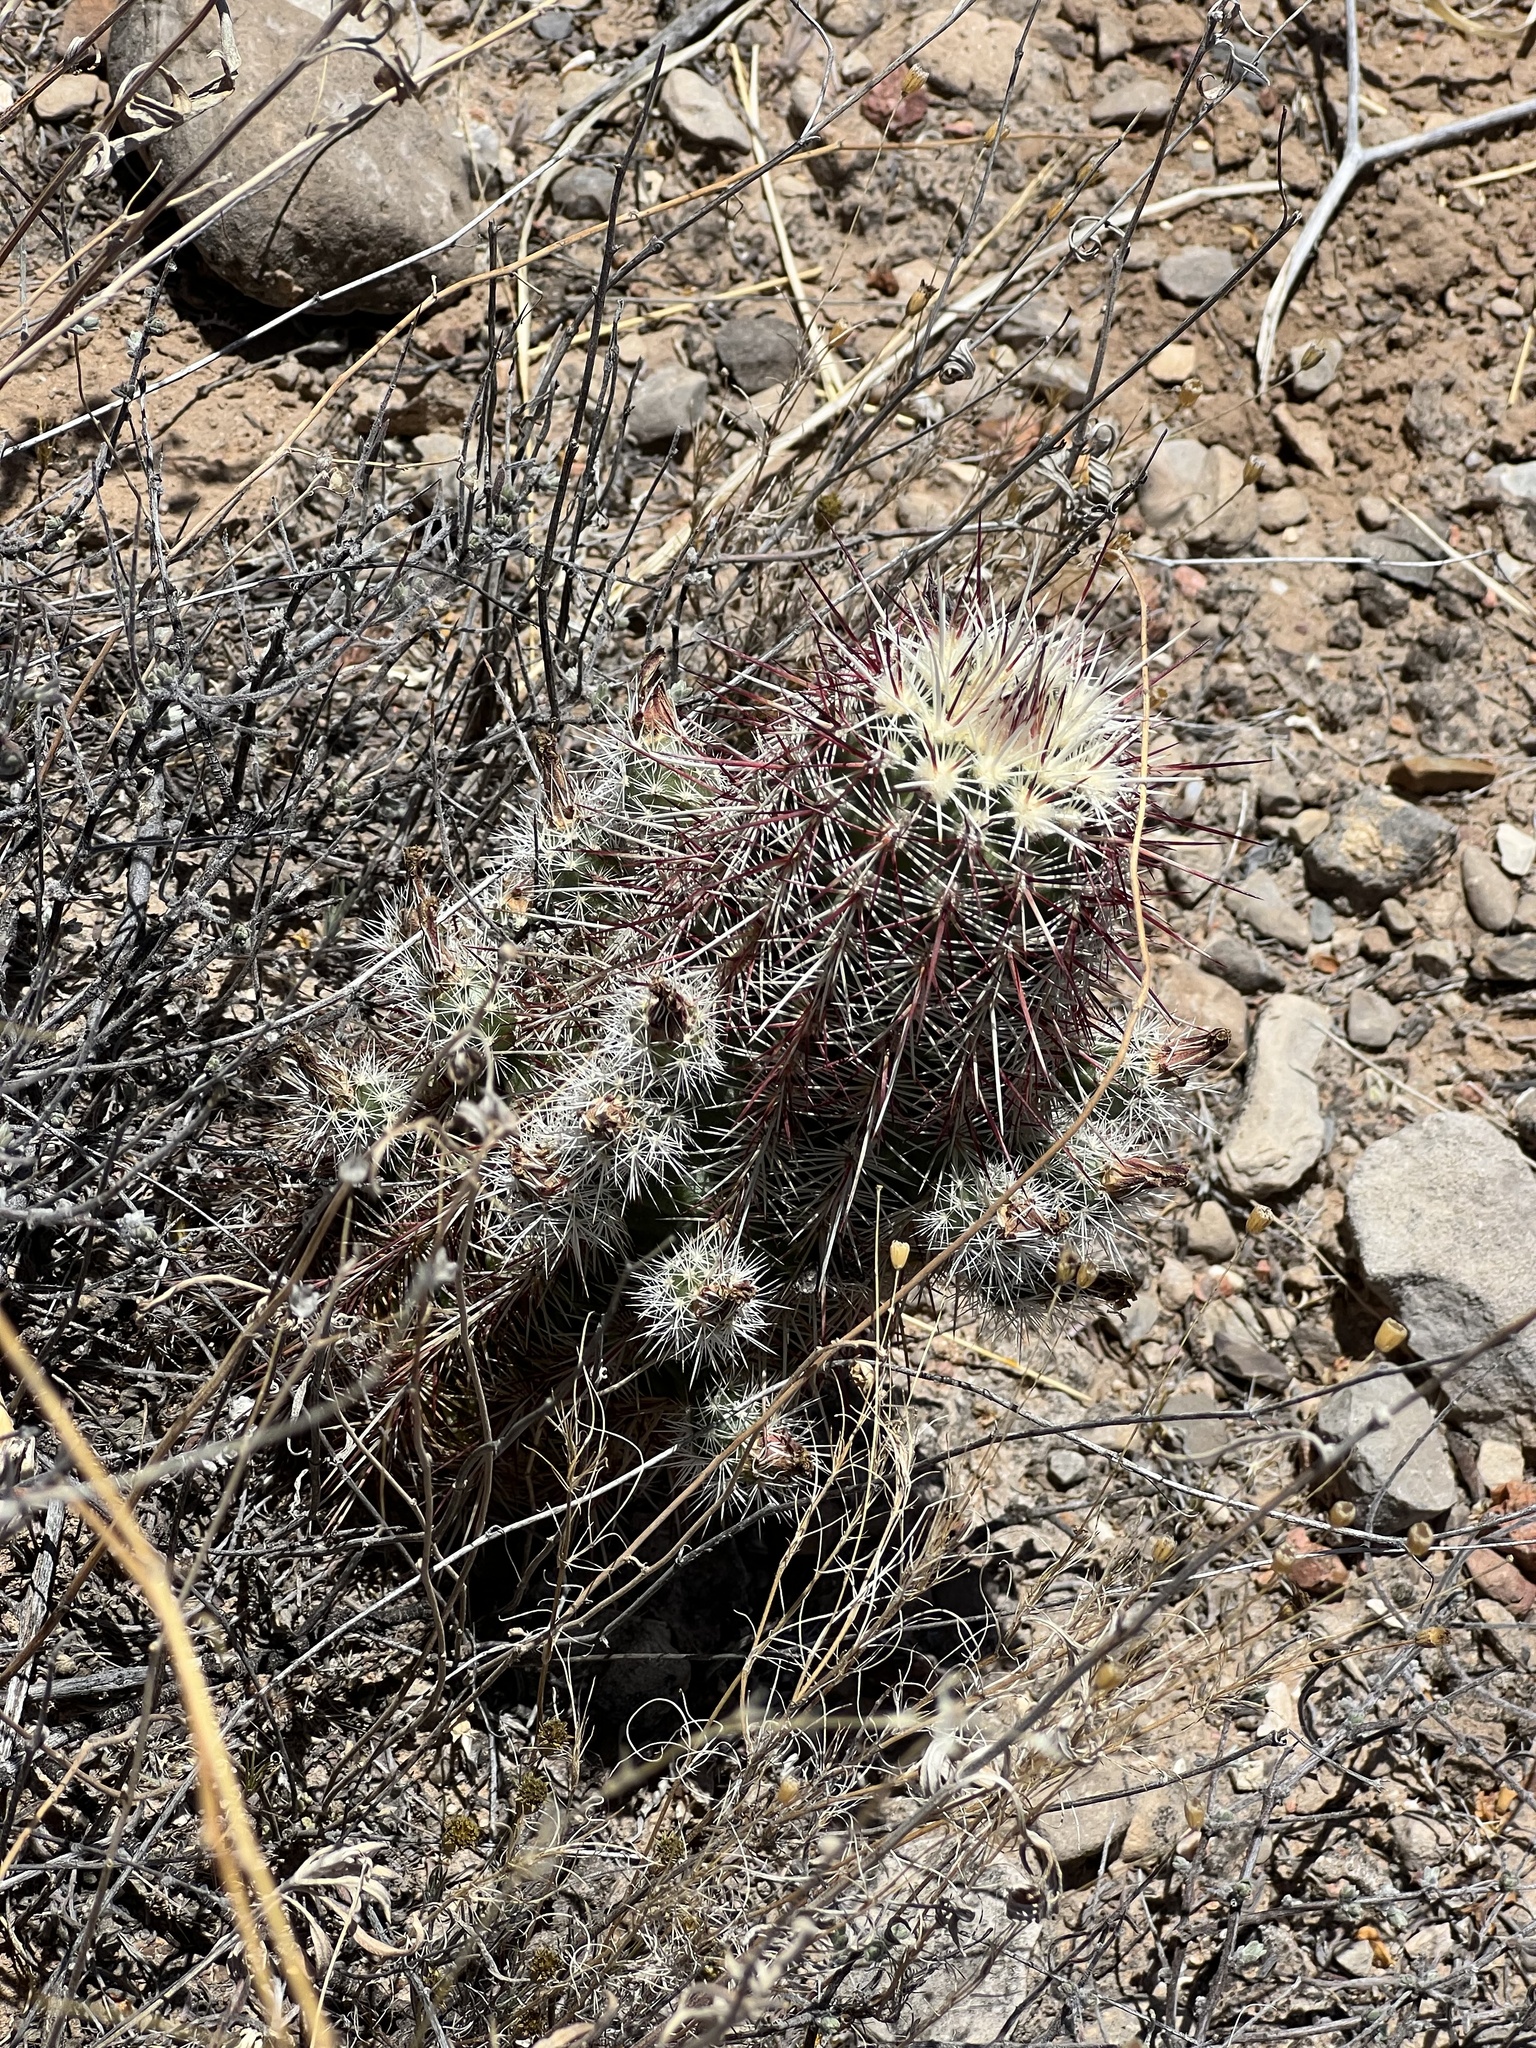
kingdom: Plantae
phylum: Tracheophyta
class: Magnoliopsida
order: Caryophyllales
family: Cactaceae
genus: Echinocereus
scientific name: Echinocereus viridiflorus
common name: Nylon hedgehog cactus
